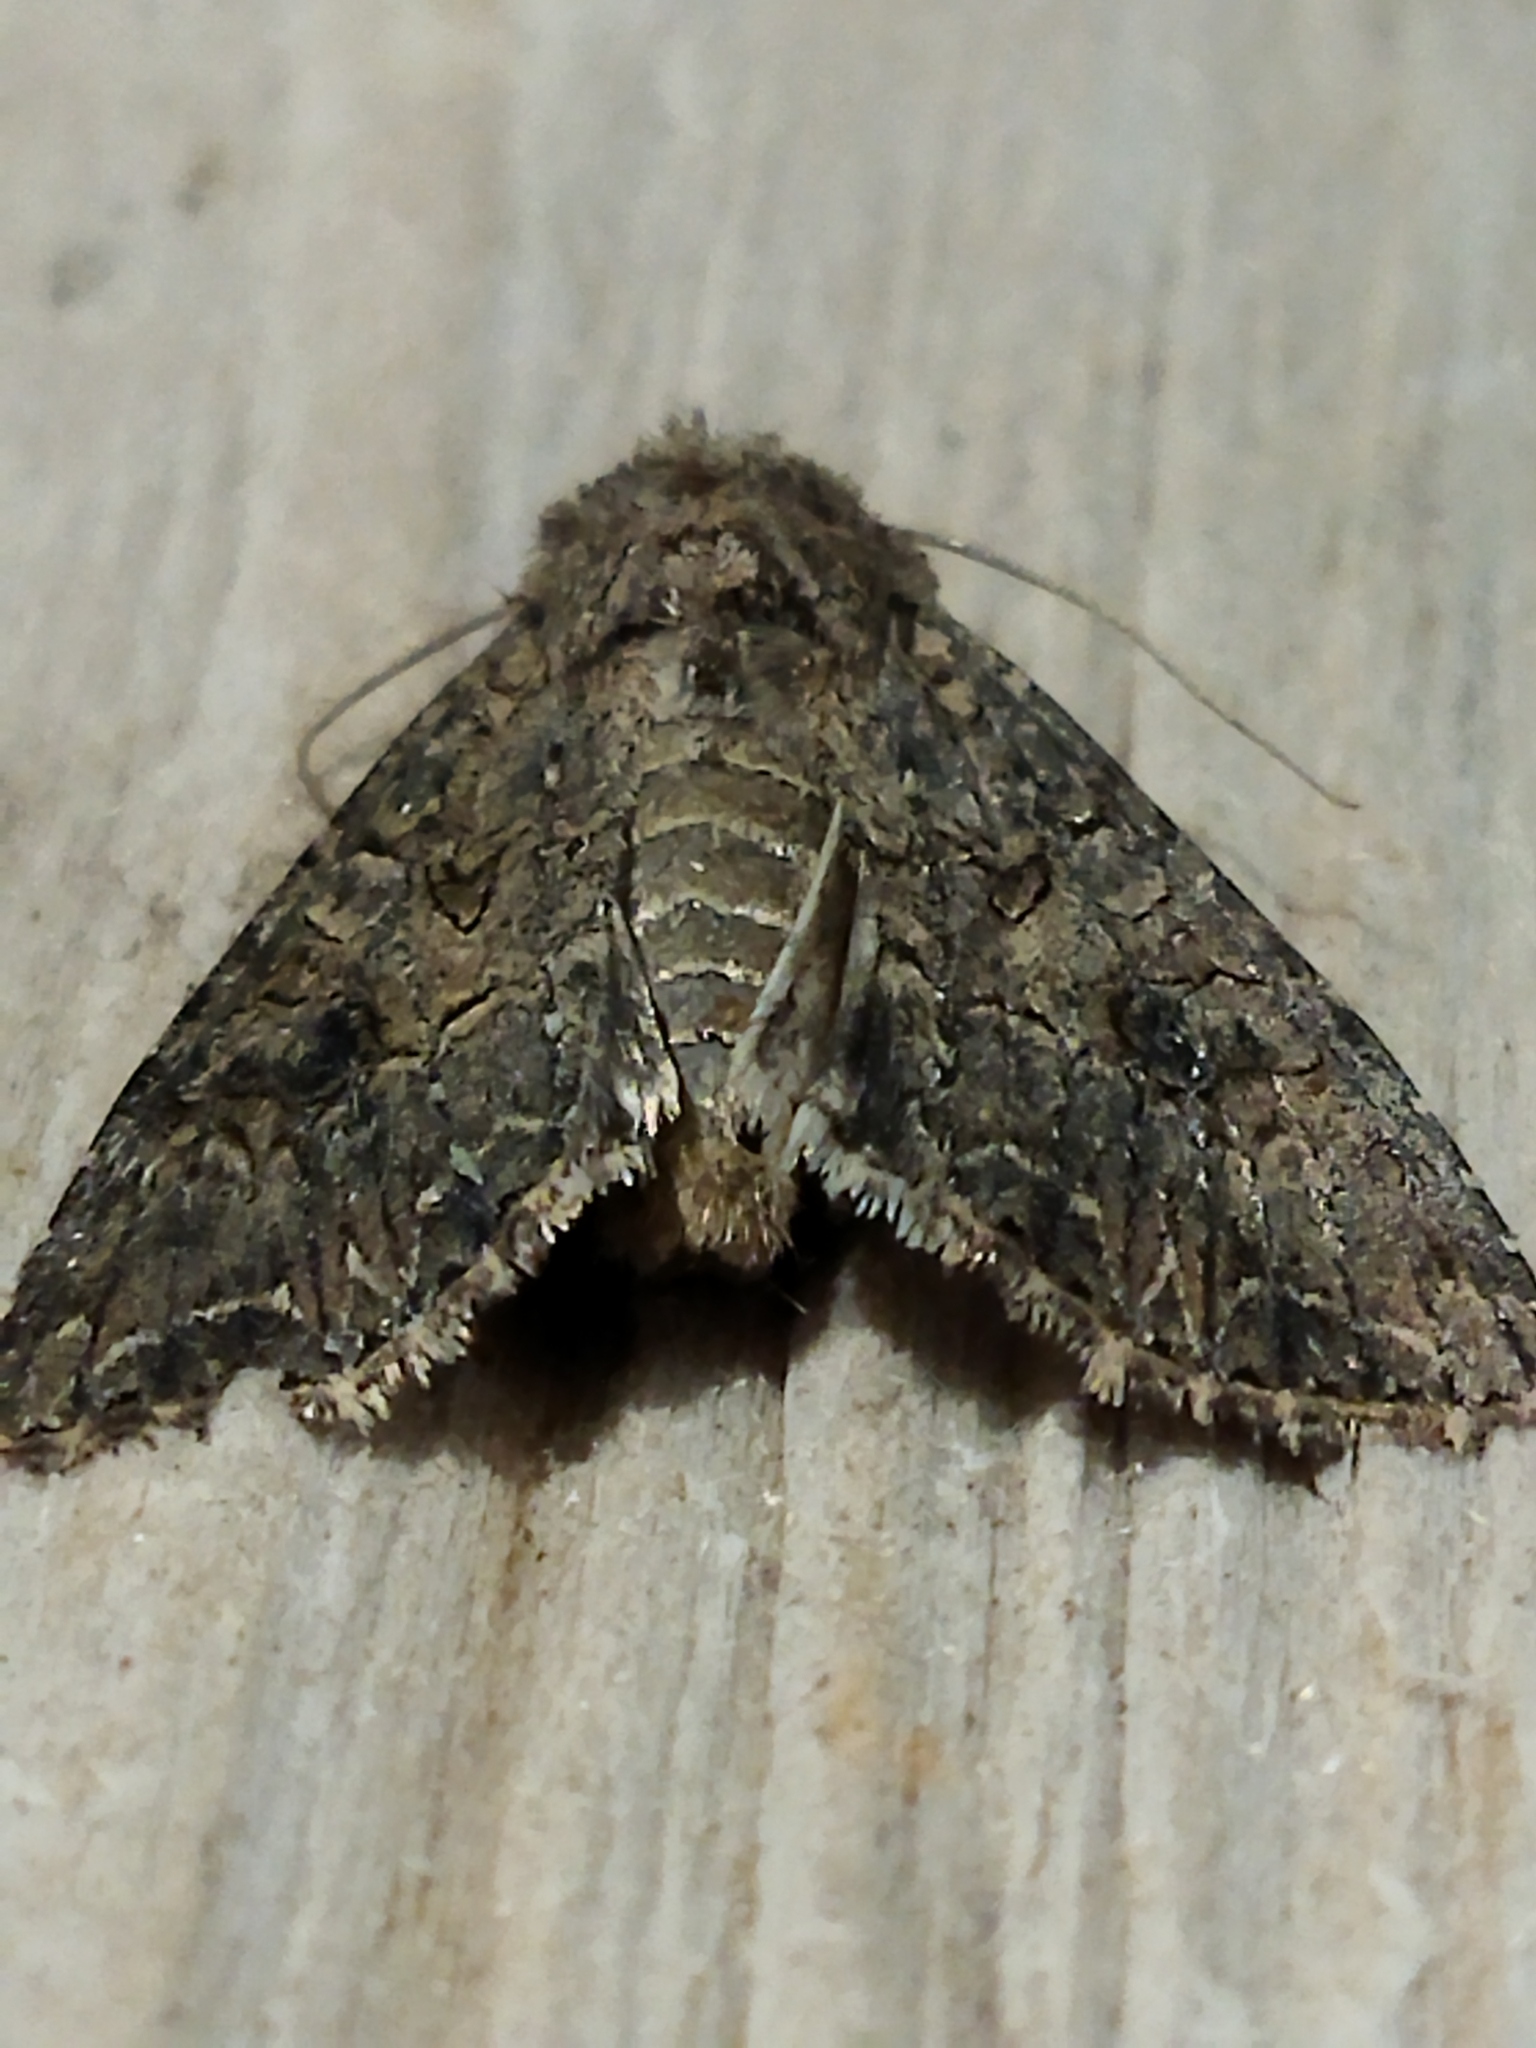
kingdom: Animalia
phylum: Arthropoda
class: Insecta
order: Lepidoptera
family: Noctuidae
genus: Anarta
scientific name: Anarta trifolii
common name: Clover cutworm moth
